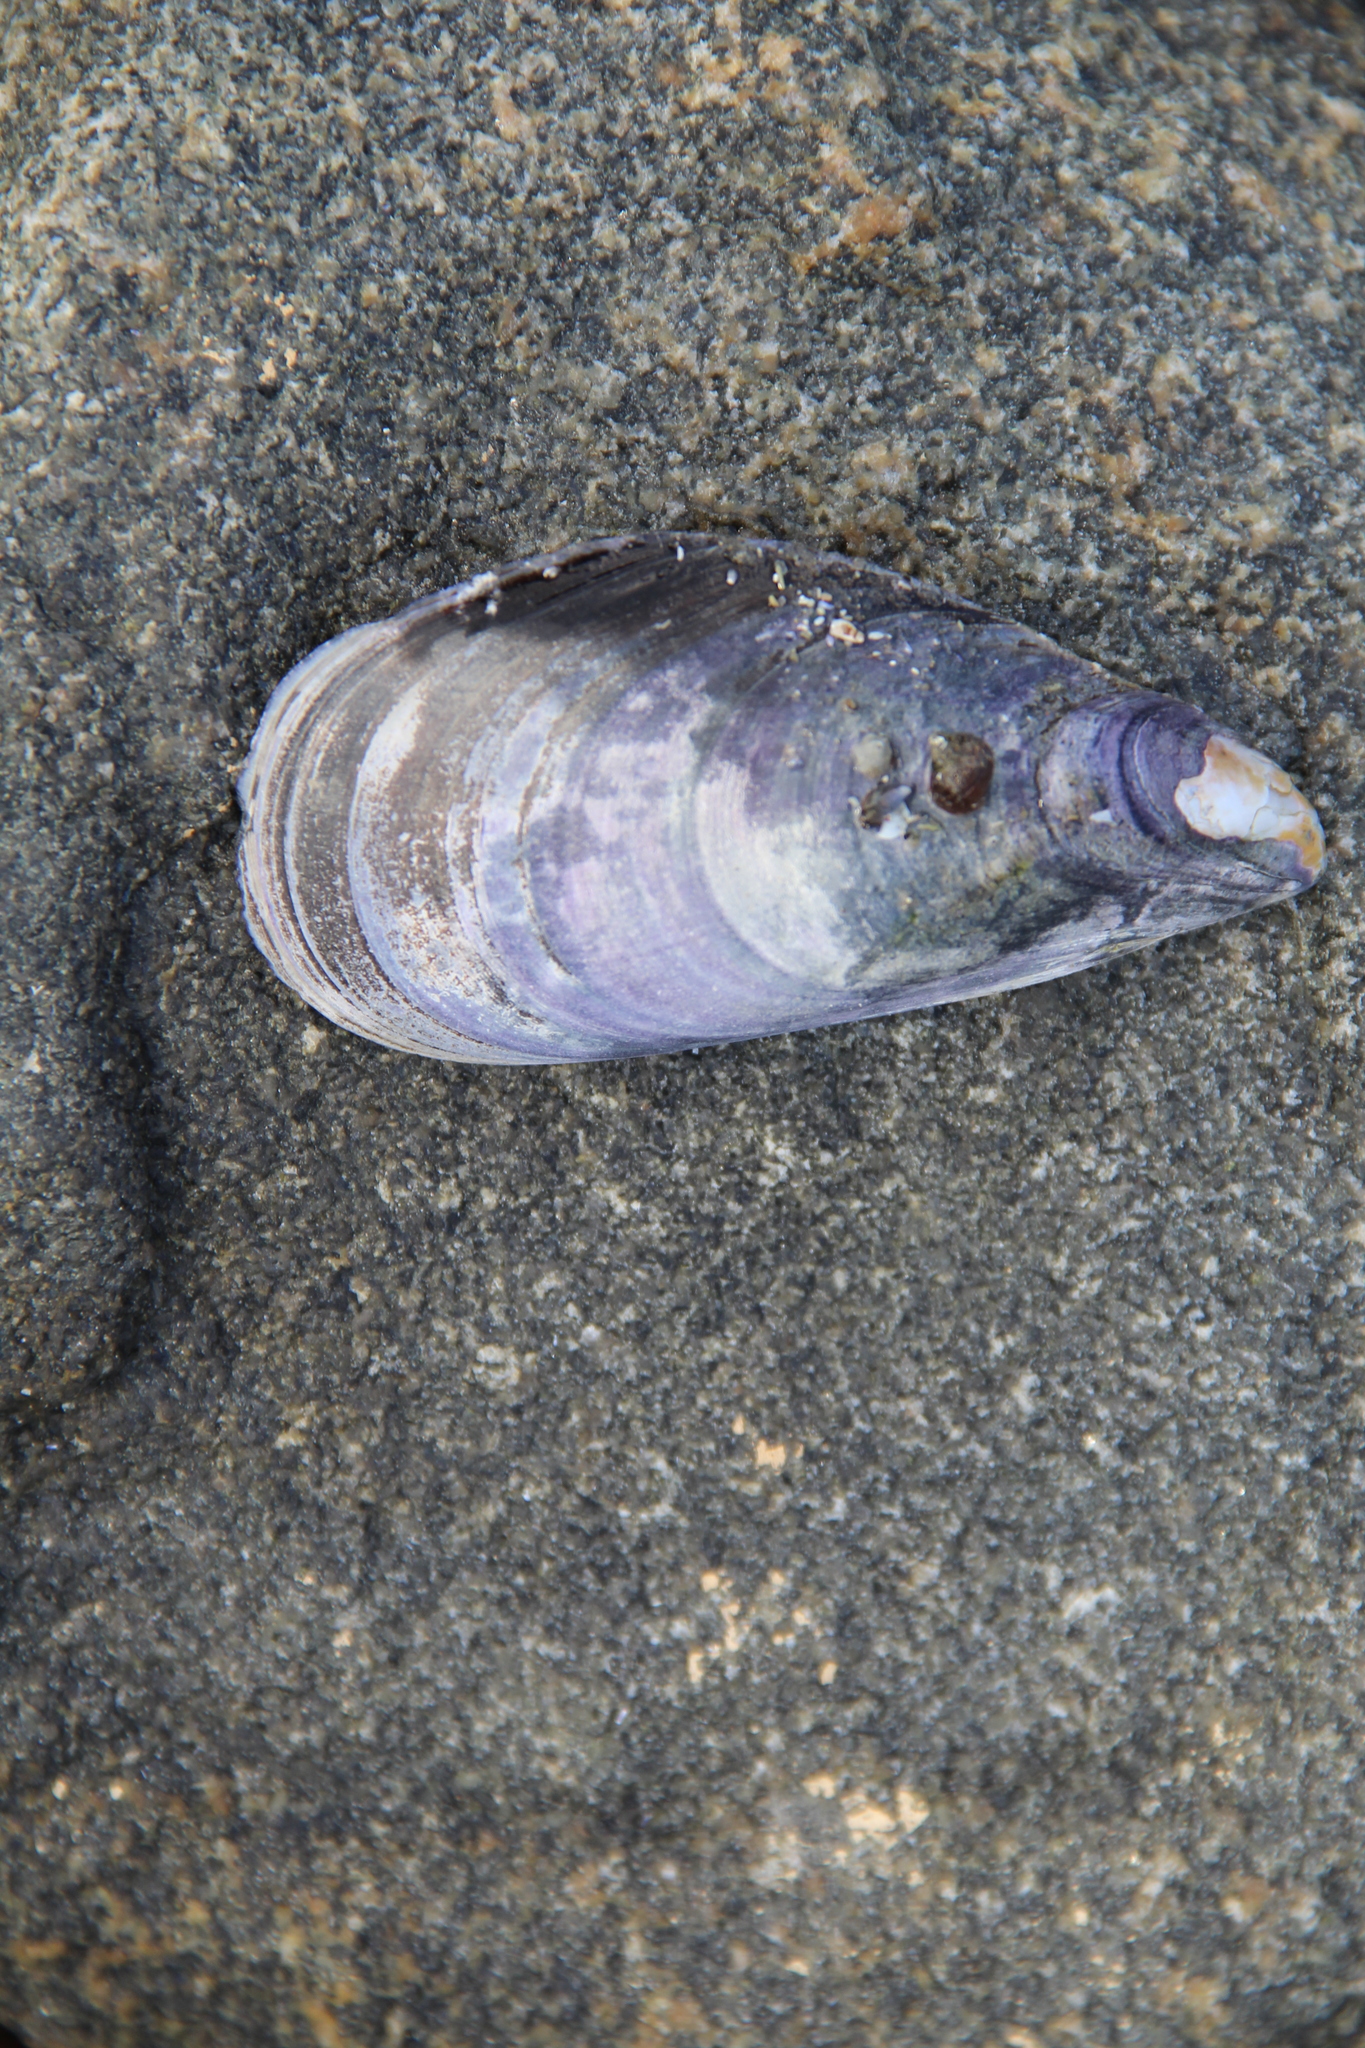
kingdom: Animalia
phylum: Mollusca
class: Bivalvia
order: Mytilida
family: Mytilidae
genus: Mytilus
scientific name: Mytilus edulis
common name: Blue mussel
